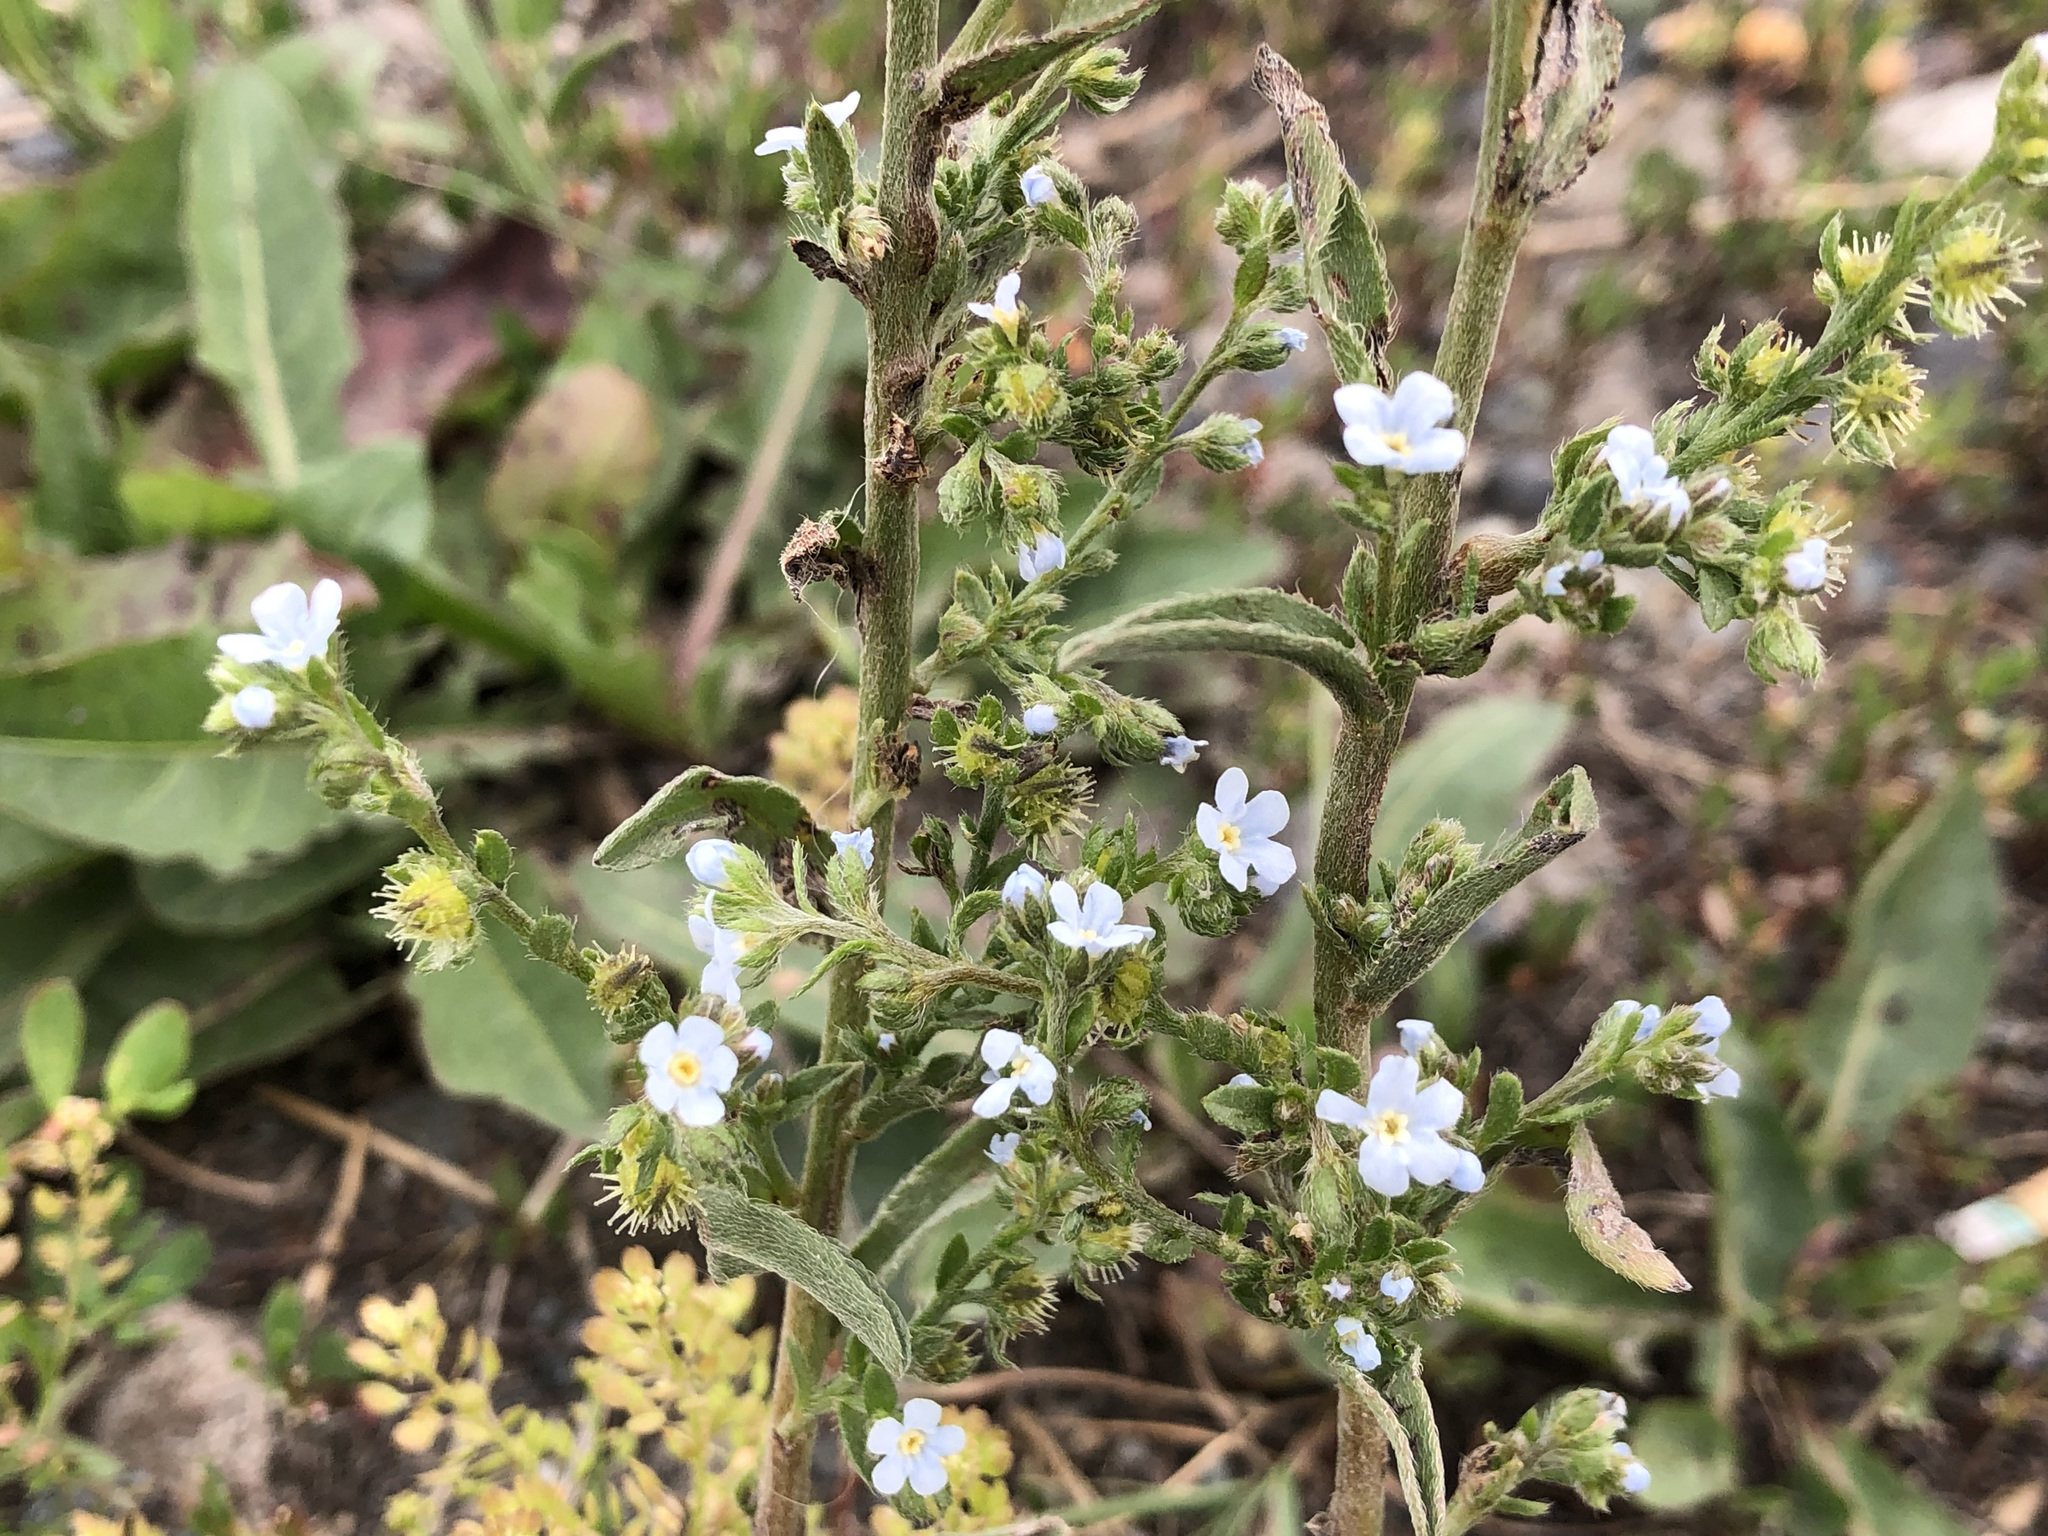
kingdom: Plantae
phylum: Tracheophyta
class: Magnoliopsida
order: Boraginales
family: Boraginaceae
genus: Lappula
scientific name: Lappula occidentalis
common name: Western stickseed
